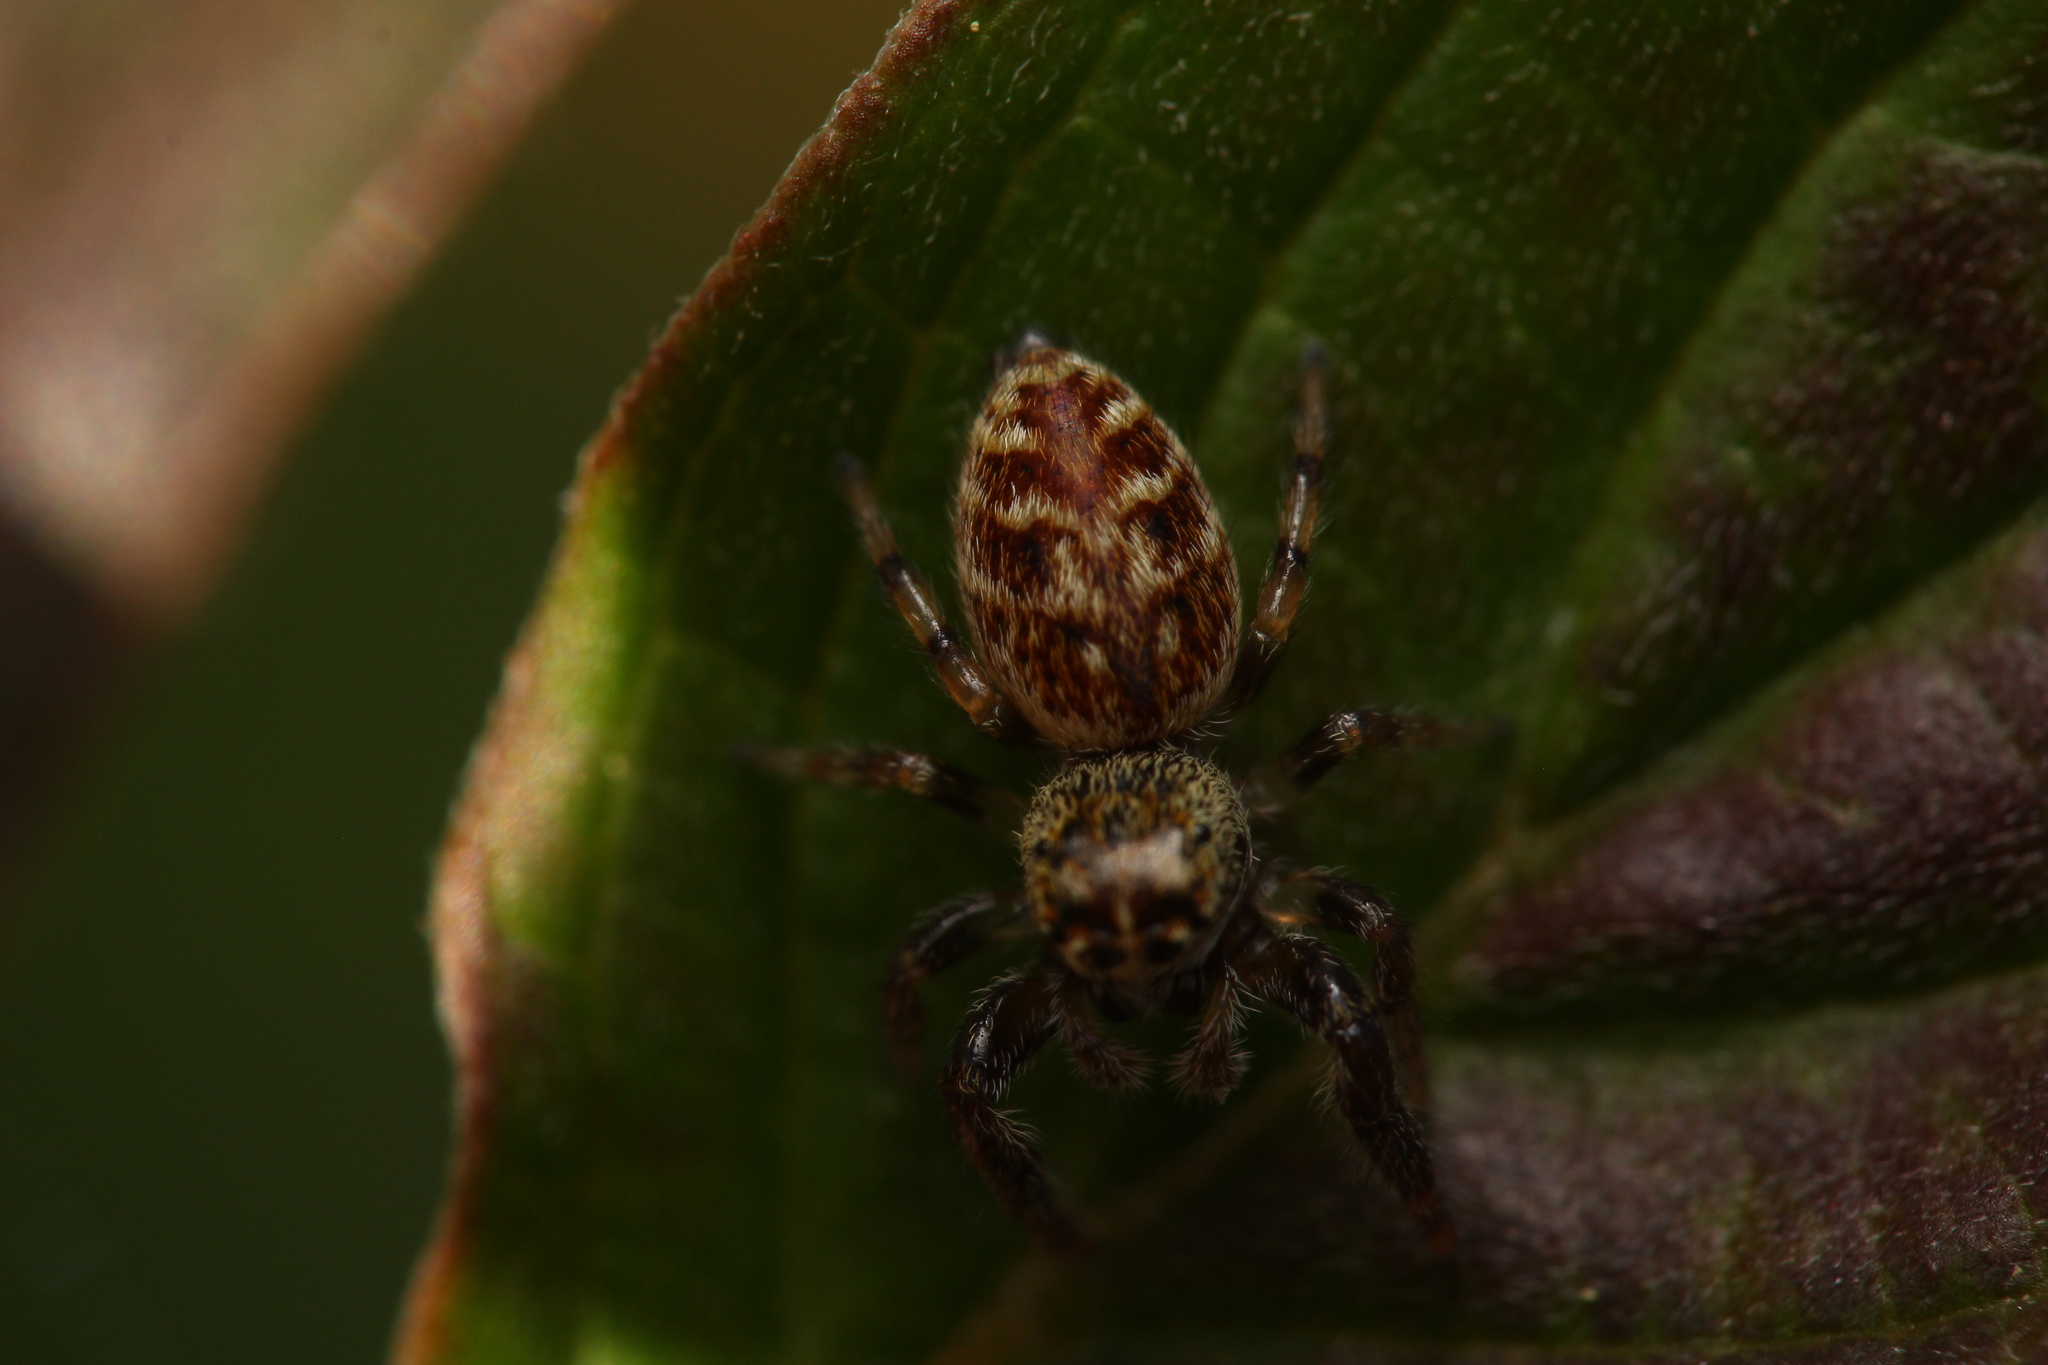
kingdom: Animalia
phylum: Arthropoda
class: Arachnida
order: Araneae
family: Salticidae
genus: Macaroeris
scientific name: Macaroeris nidicolens
